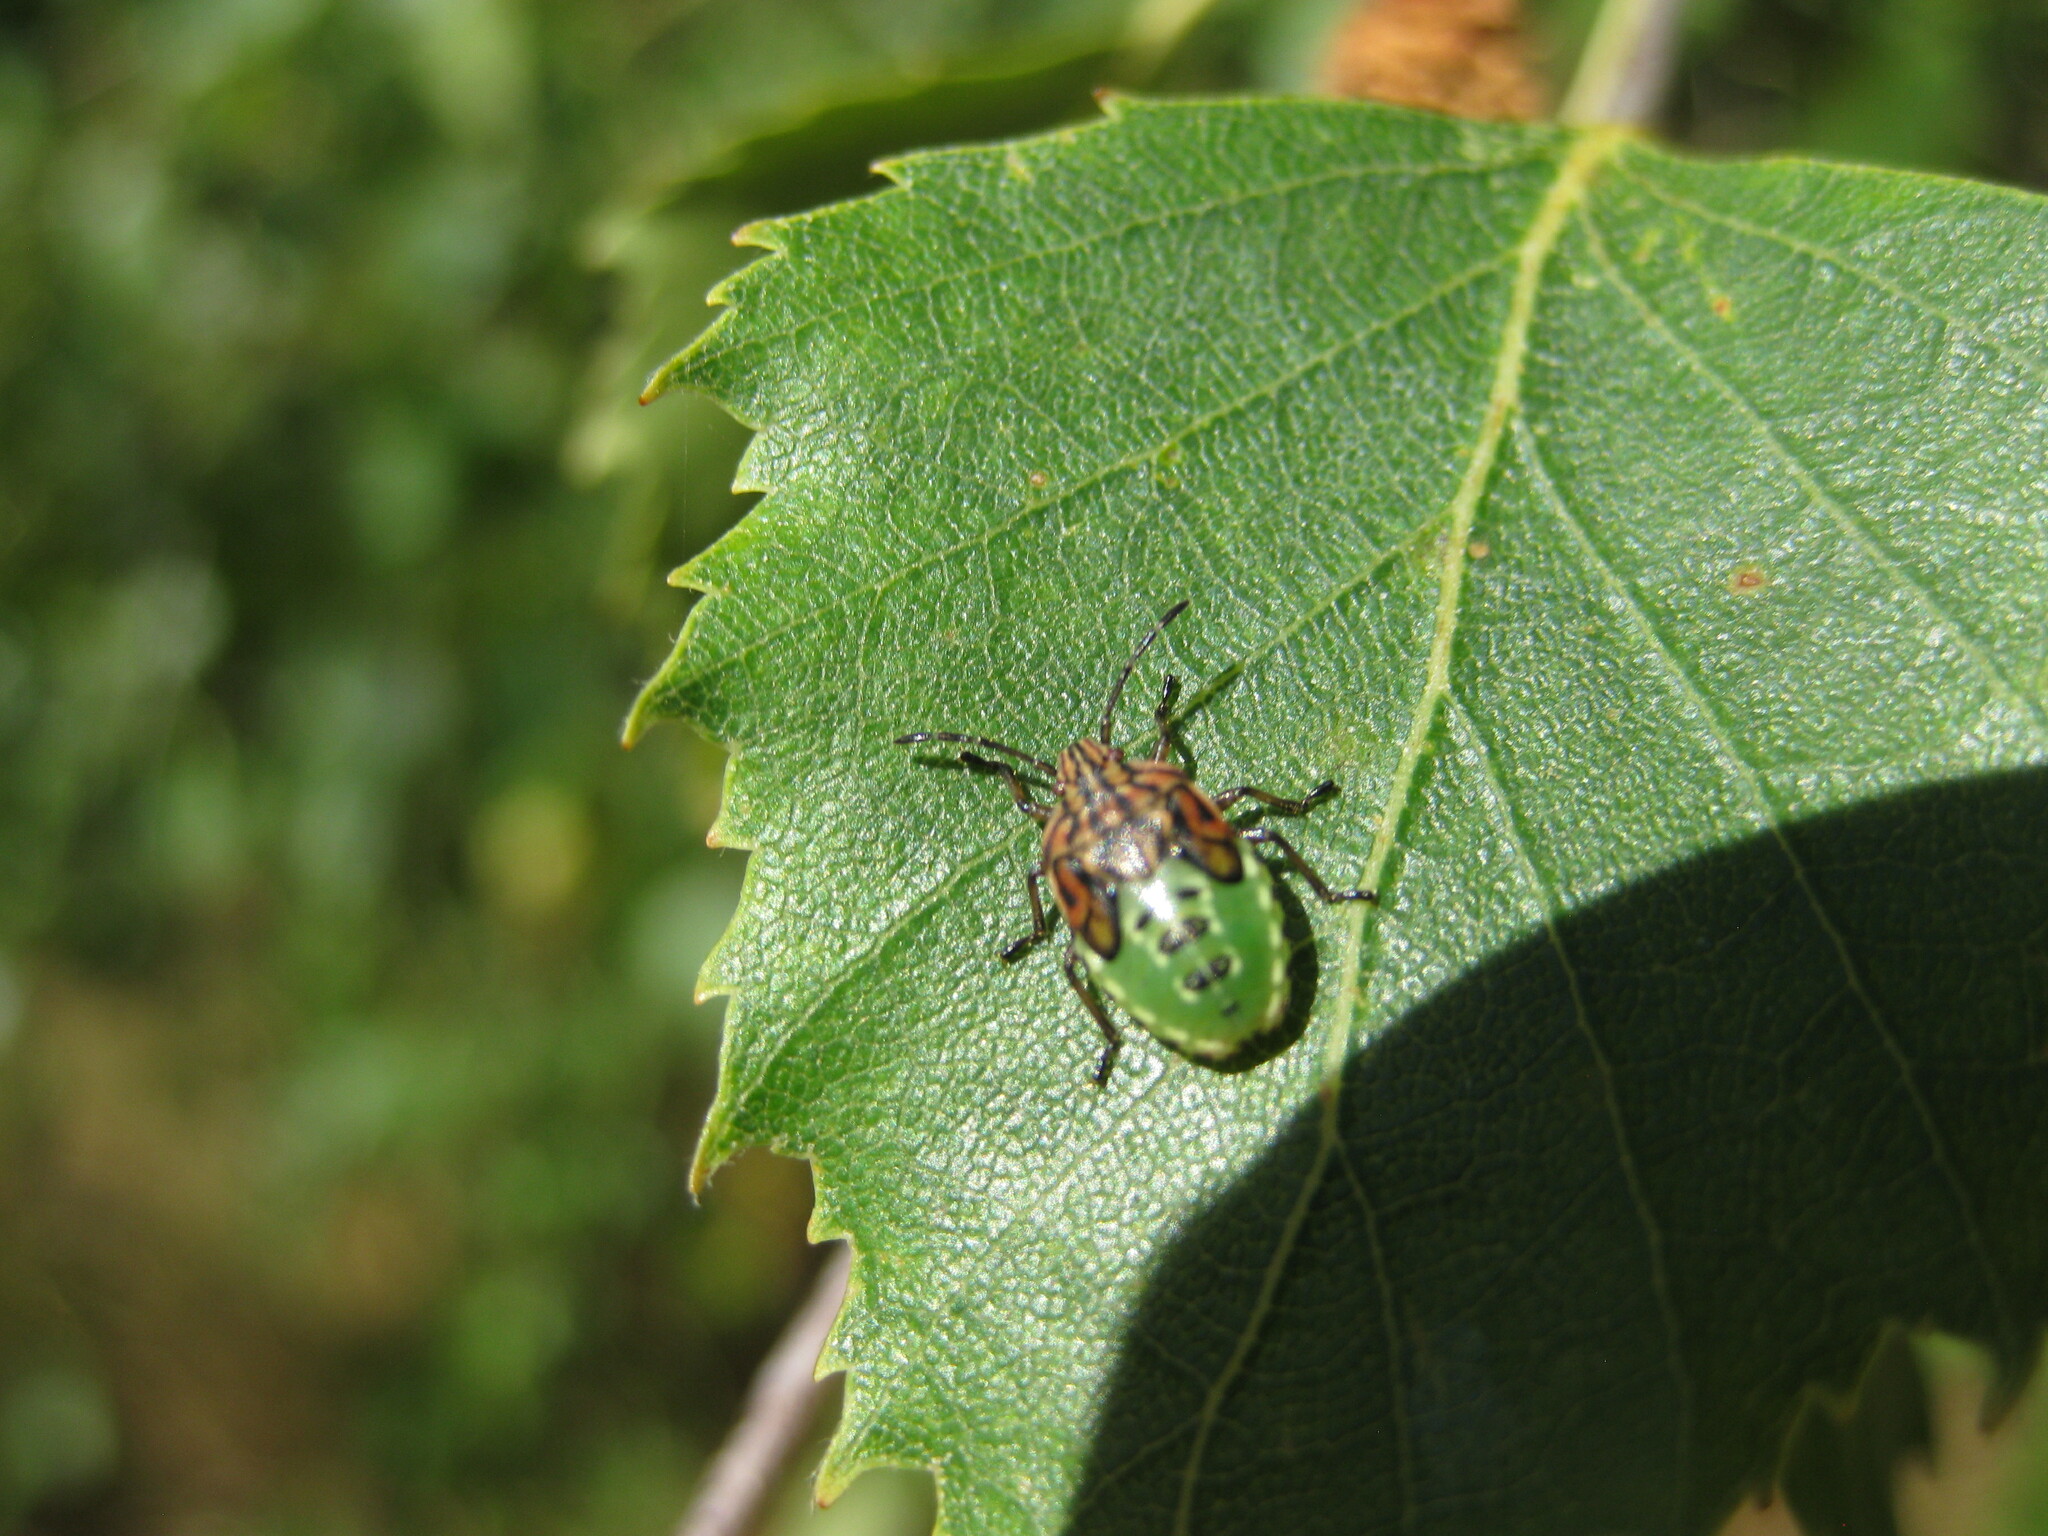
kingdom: Animalia
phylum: Arthropoda
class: Insecta
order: Hemiptera
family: Acanthosomatidae
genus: Elasmucha
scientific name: Elasmucha grisea
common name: Parent bug
